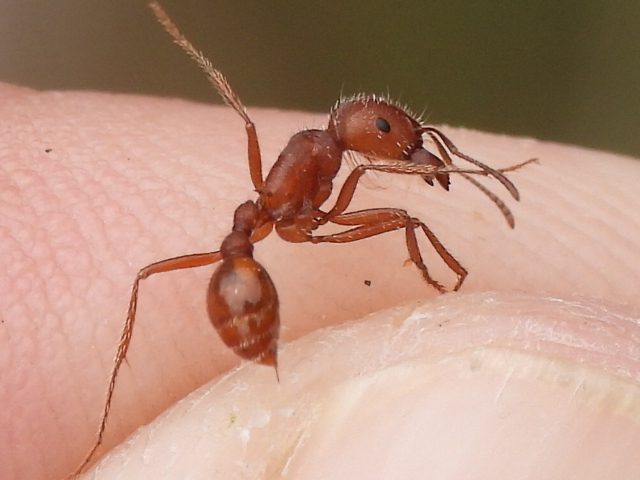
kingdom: Animalia
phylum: Arthropoda
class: Insecta
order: Hymenoptera
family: Formicidae
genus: Pogonomyrmex
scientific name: Pogonomyrmex comanche
